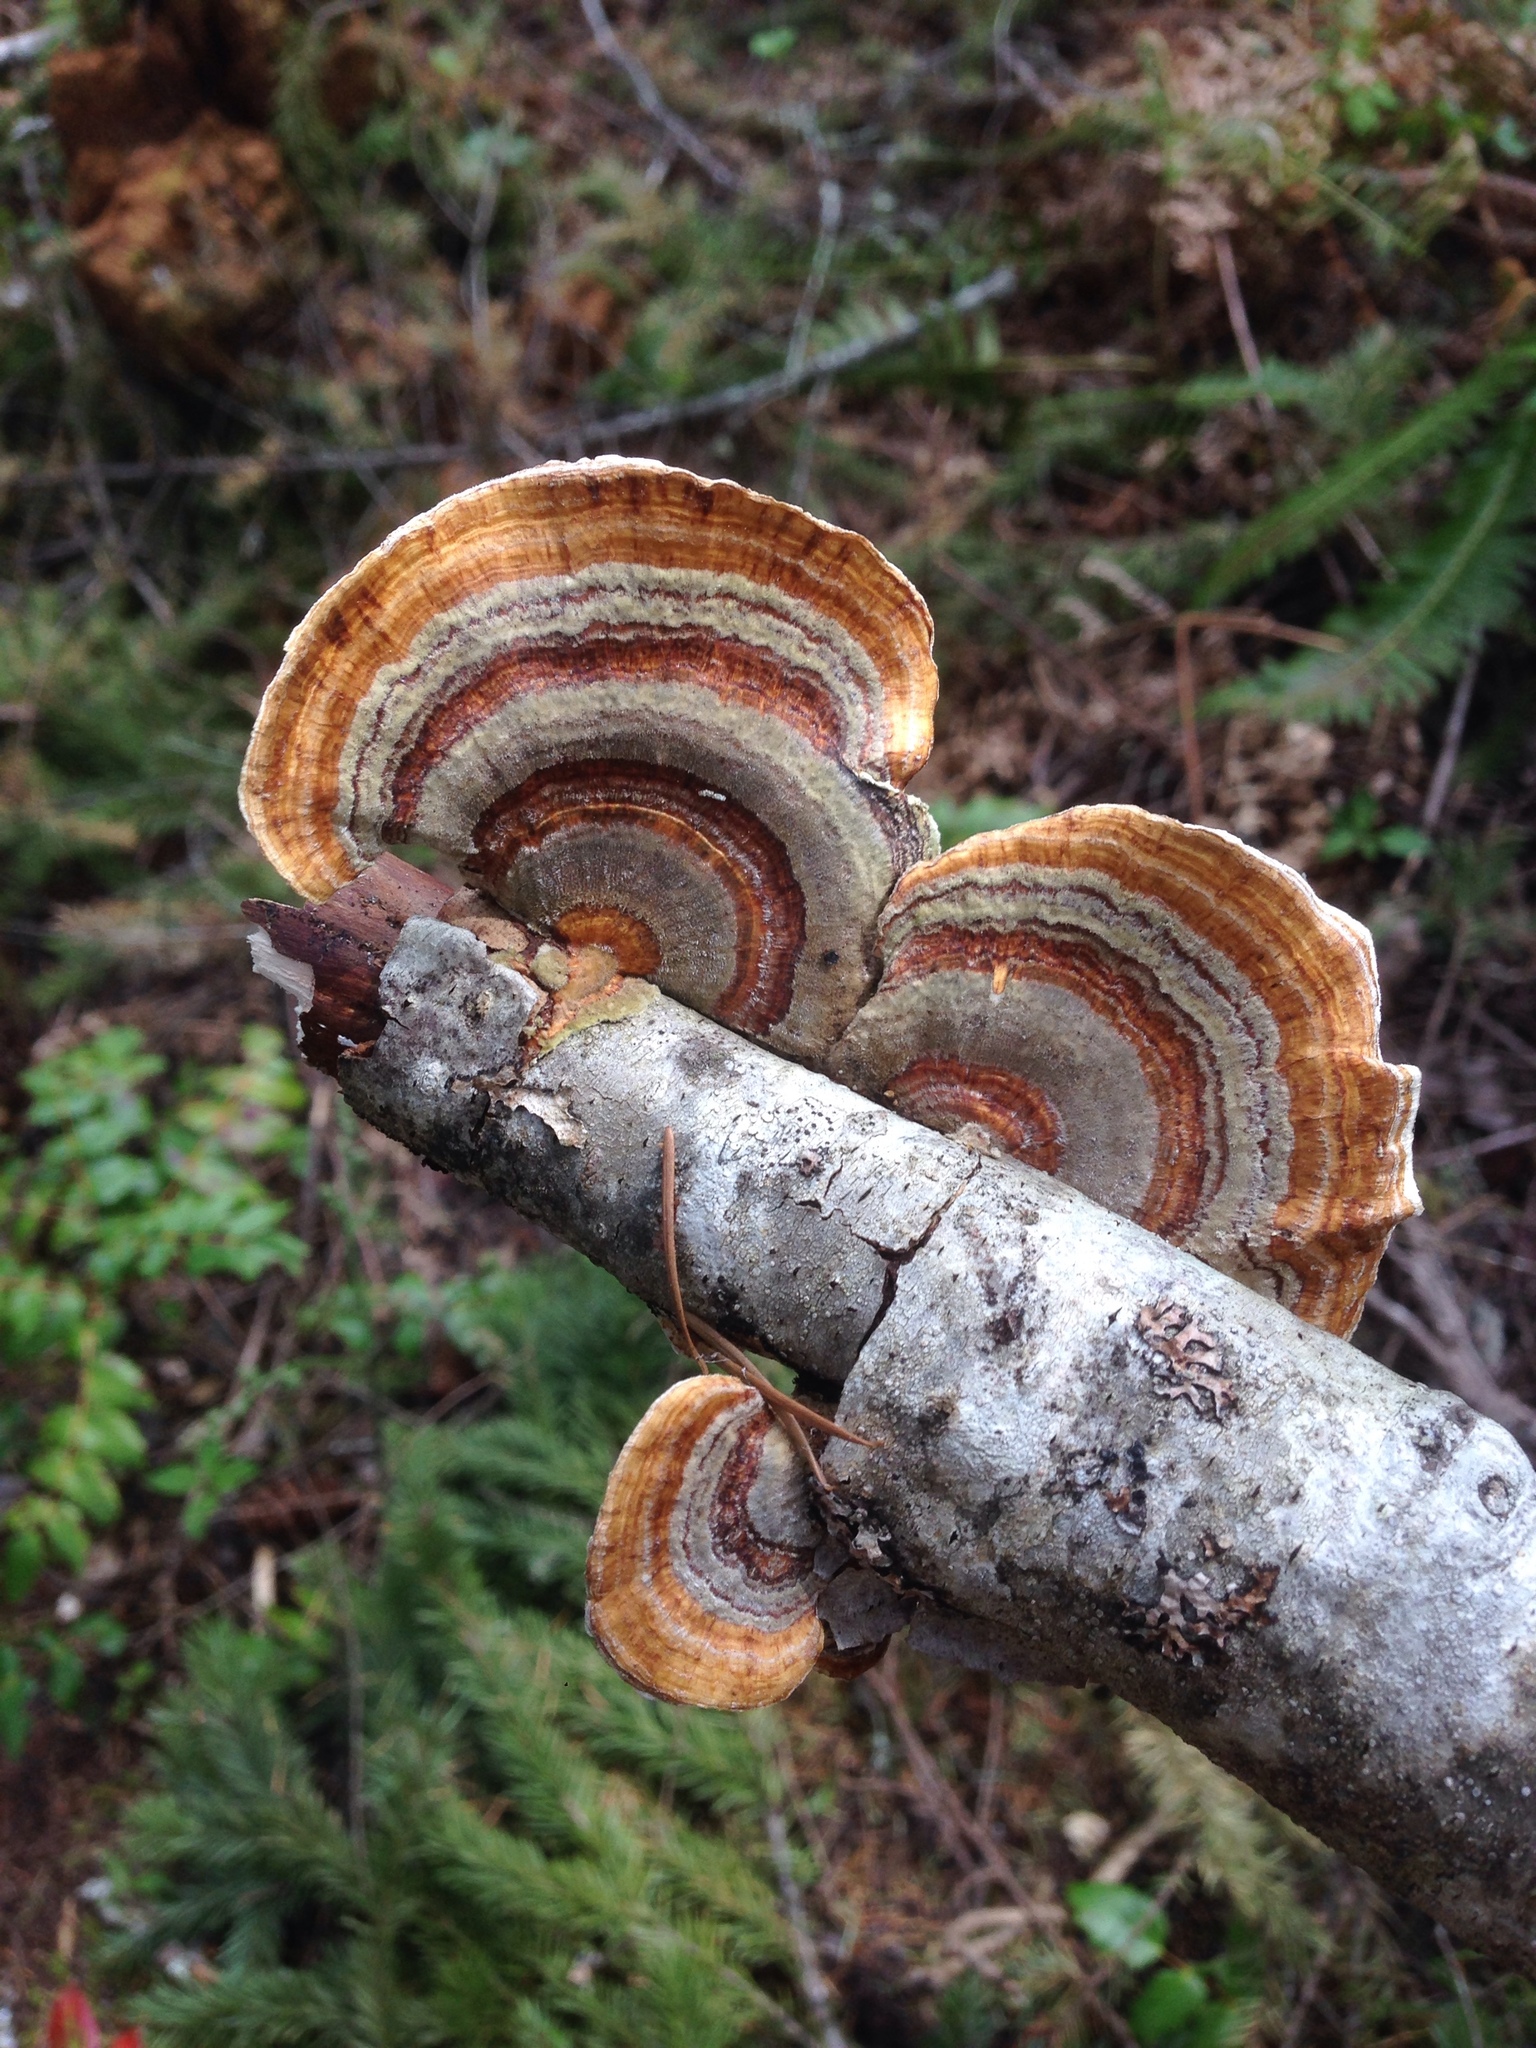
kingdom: Fungi
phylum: Basidiomycota
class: Agaricomycetes
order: Polyporales
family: Polyporaceae
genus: Trametes
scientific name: Trametes versicolor
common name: Turkeytail
